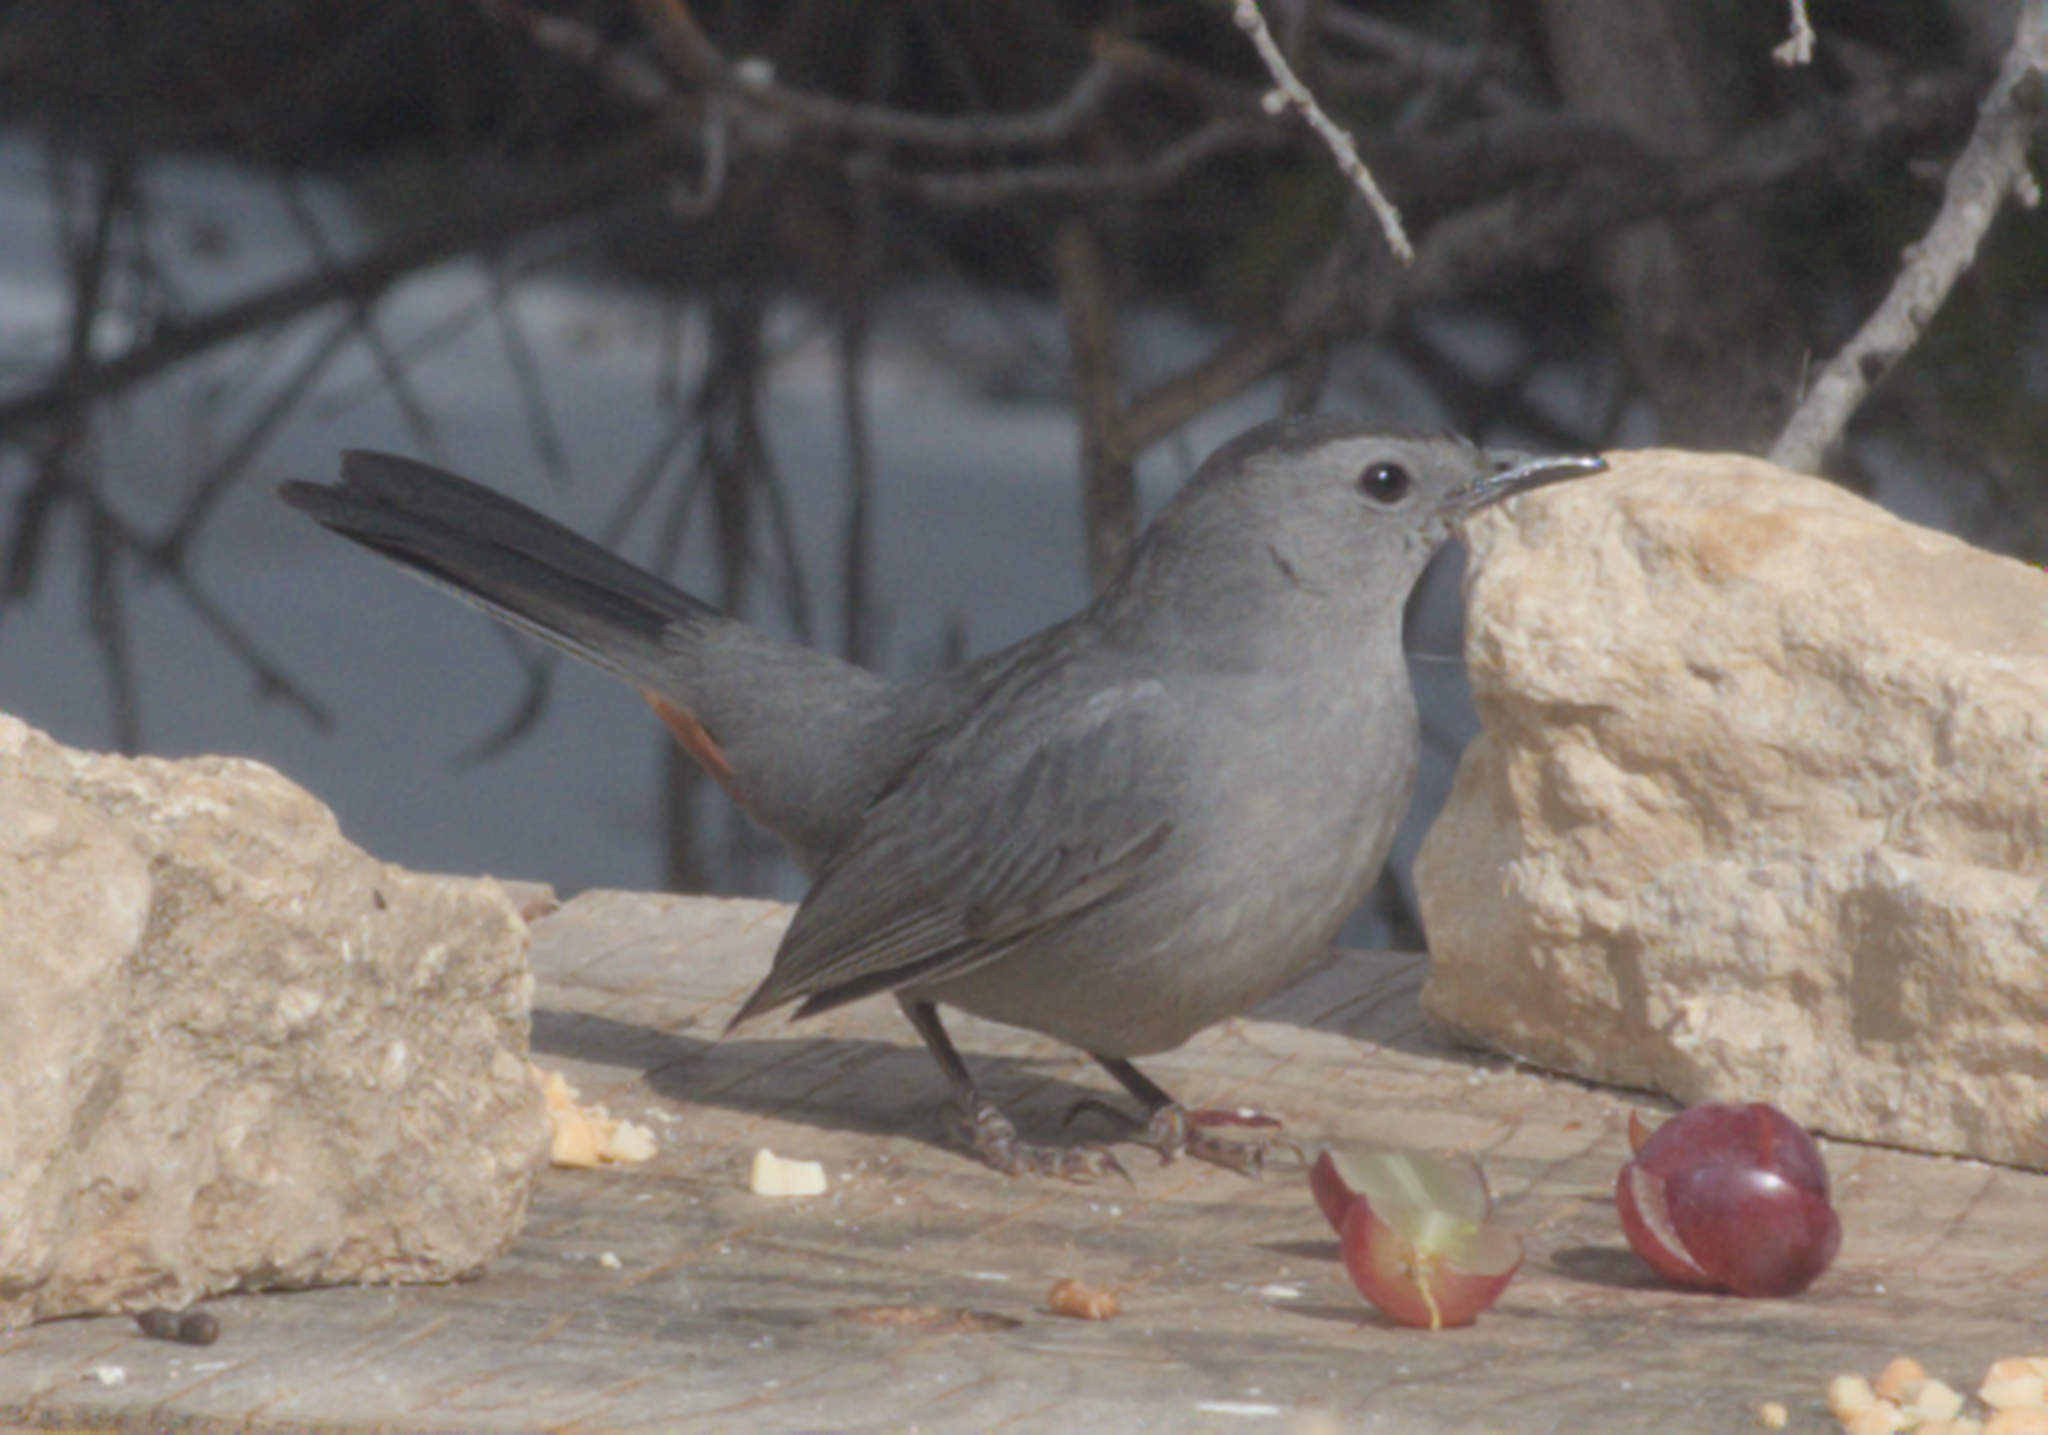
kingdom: Animalia
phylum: Chordata
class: Aves
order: Passeriformes
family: Mimidae
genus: Dumetella
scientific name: Dumetella carolinensis
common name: Gray catbird
